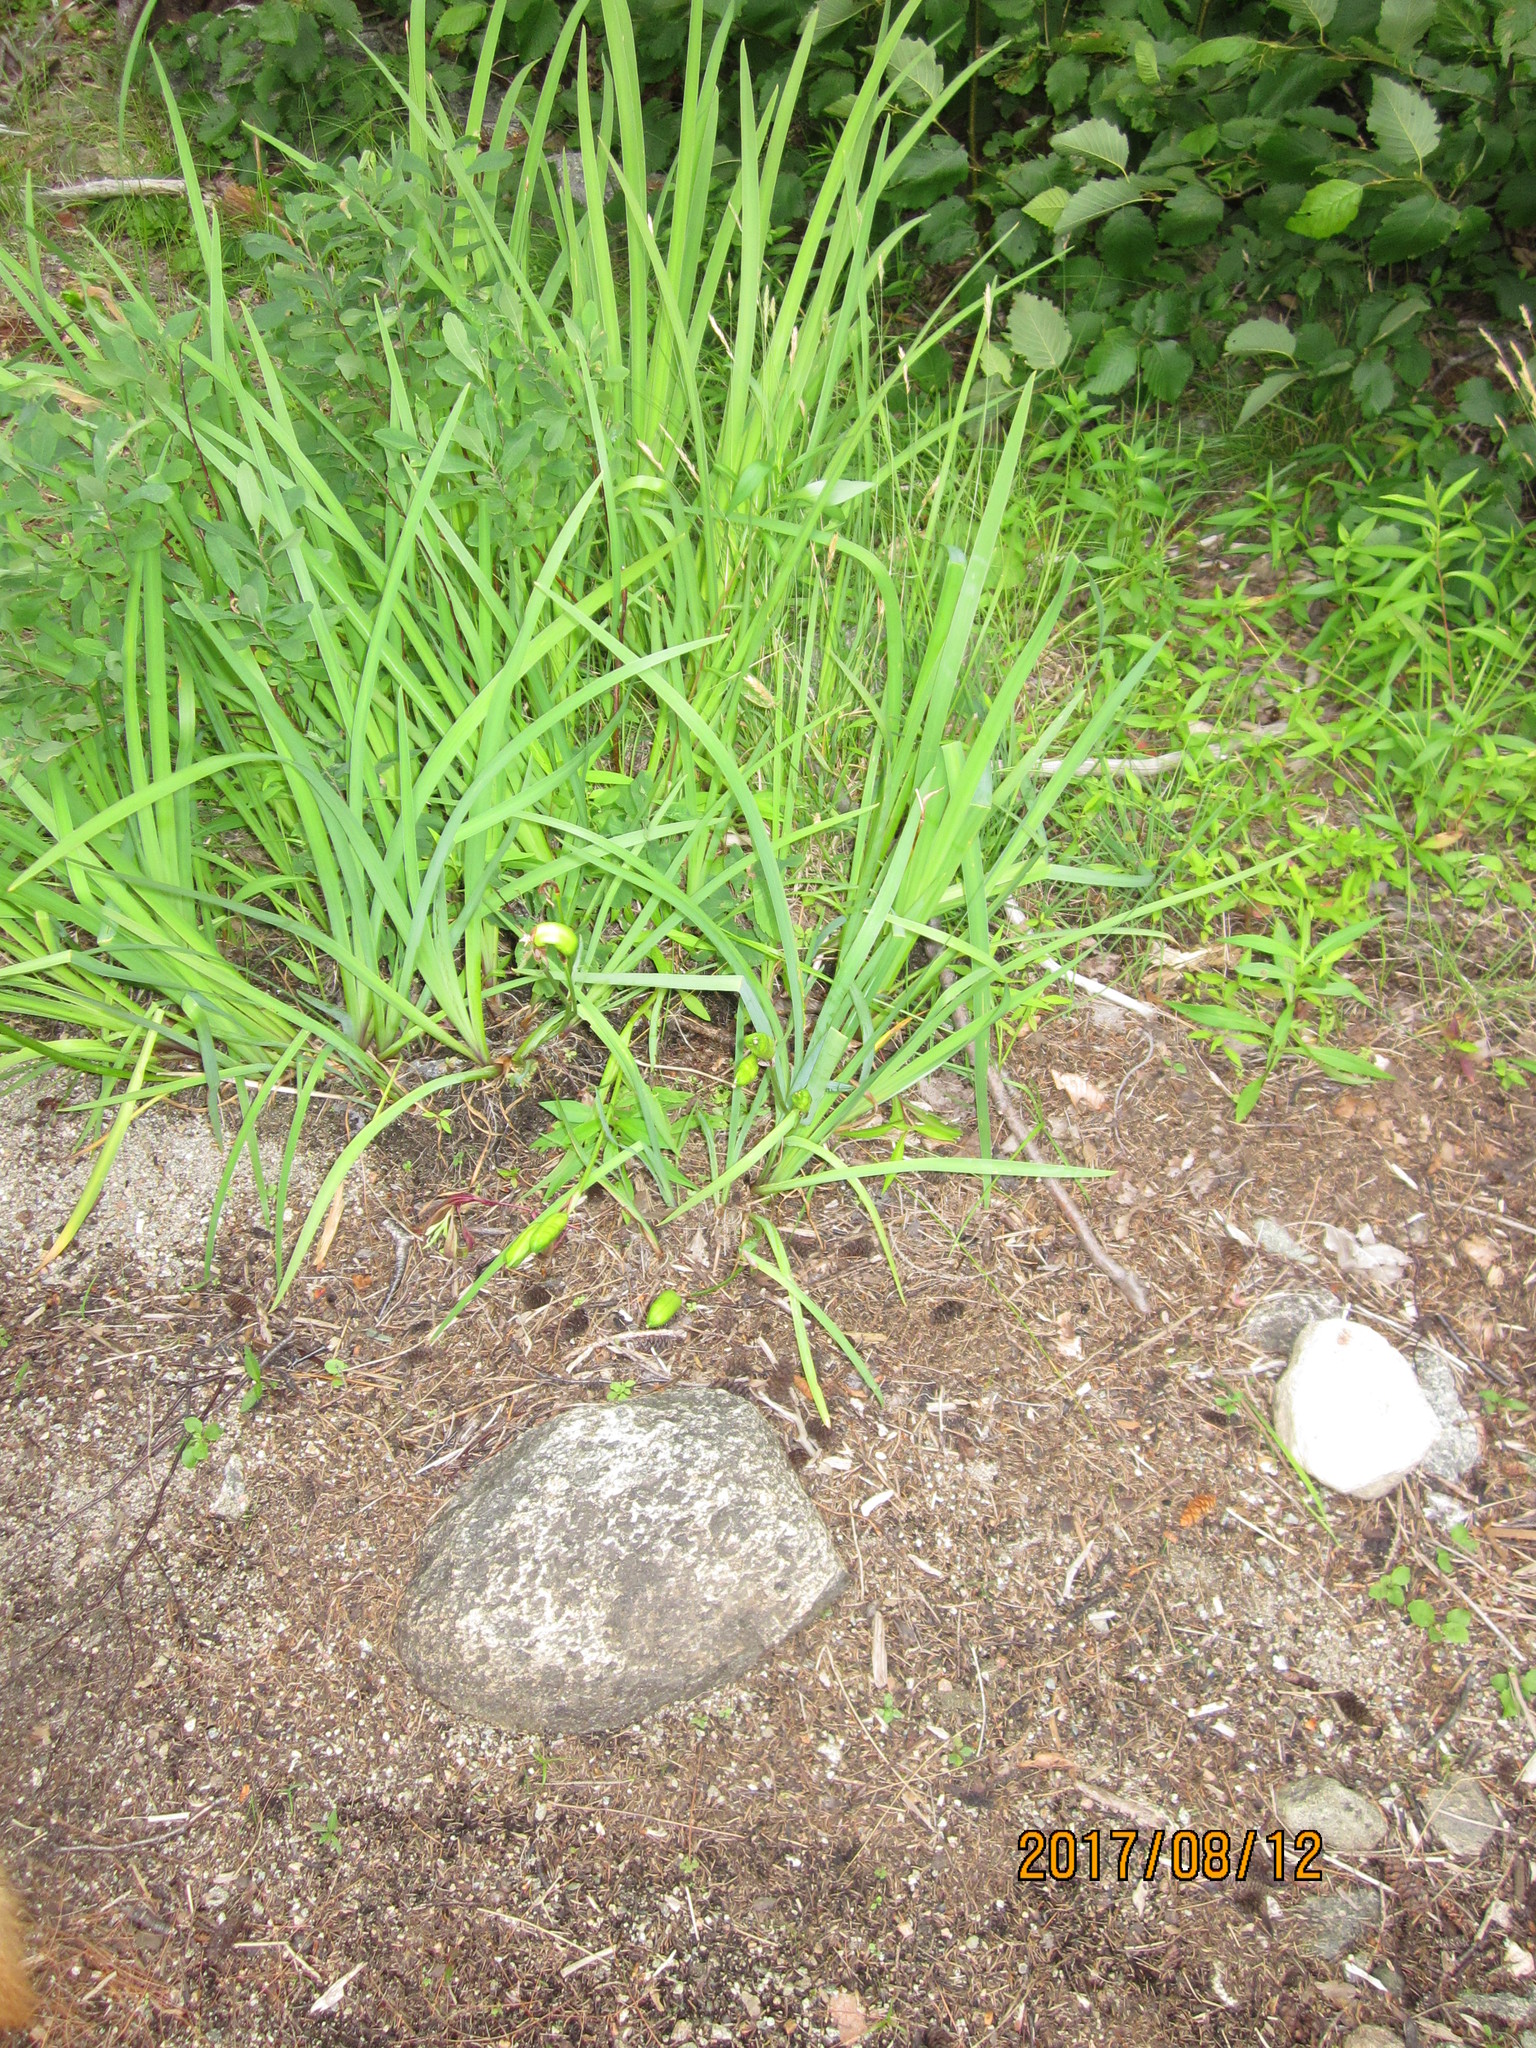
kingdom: Plantae
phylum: Tracheophyta
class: Liliopsida
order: Asparagales
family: Iridaceae
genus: Iris
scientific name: Iris versicolor
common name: Purple iris
